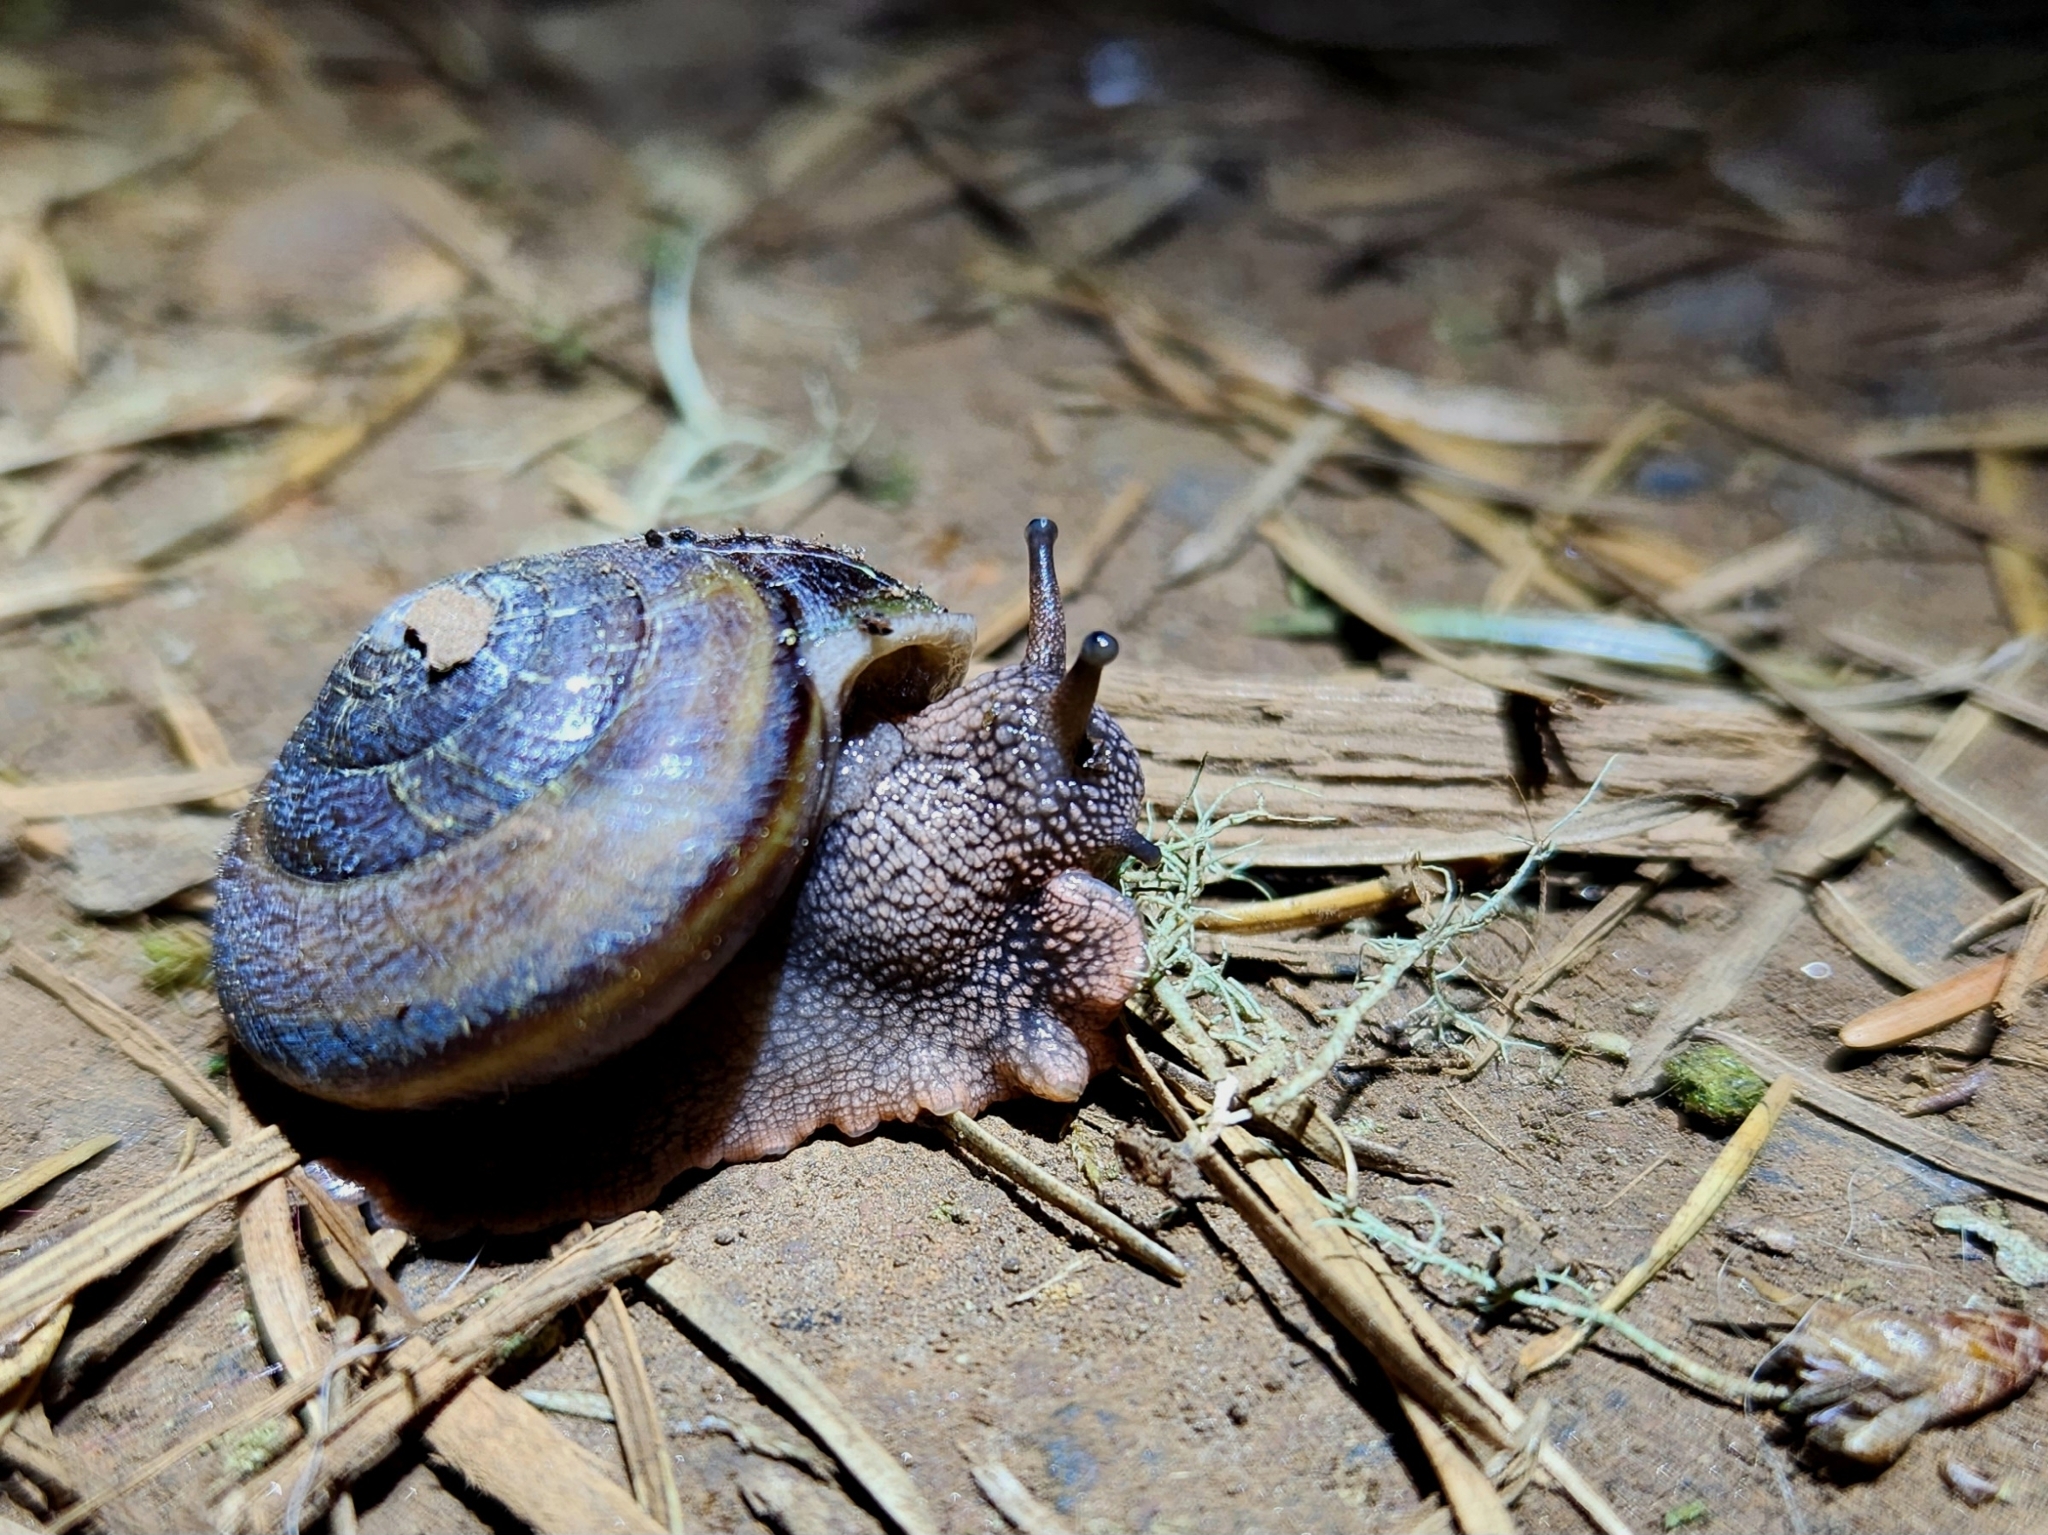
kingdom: Animalia
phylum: Mollusca
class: Gastropoda
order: Stylommatophora
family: Xanthonychidae
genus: Monadenia
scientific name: Monadenia fidelis
